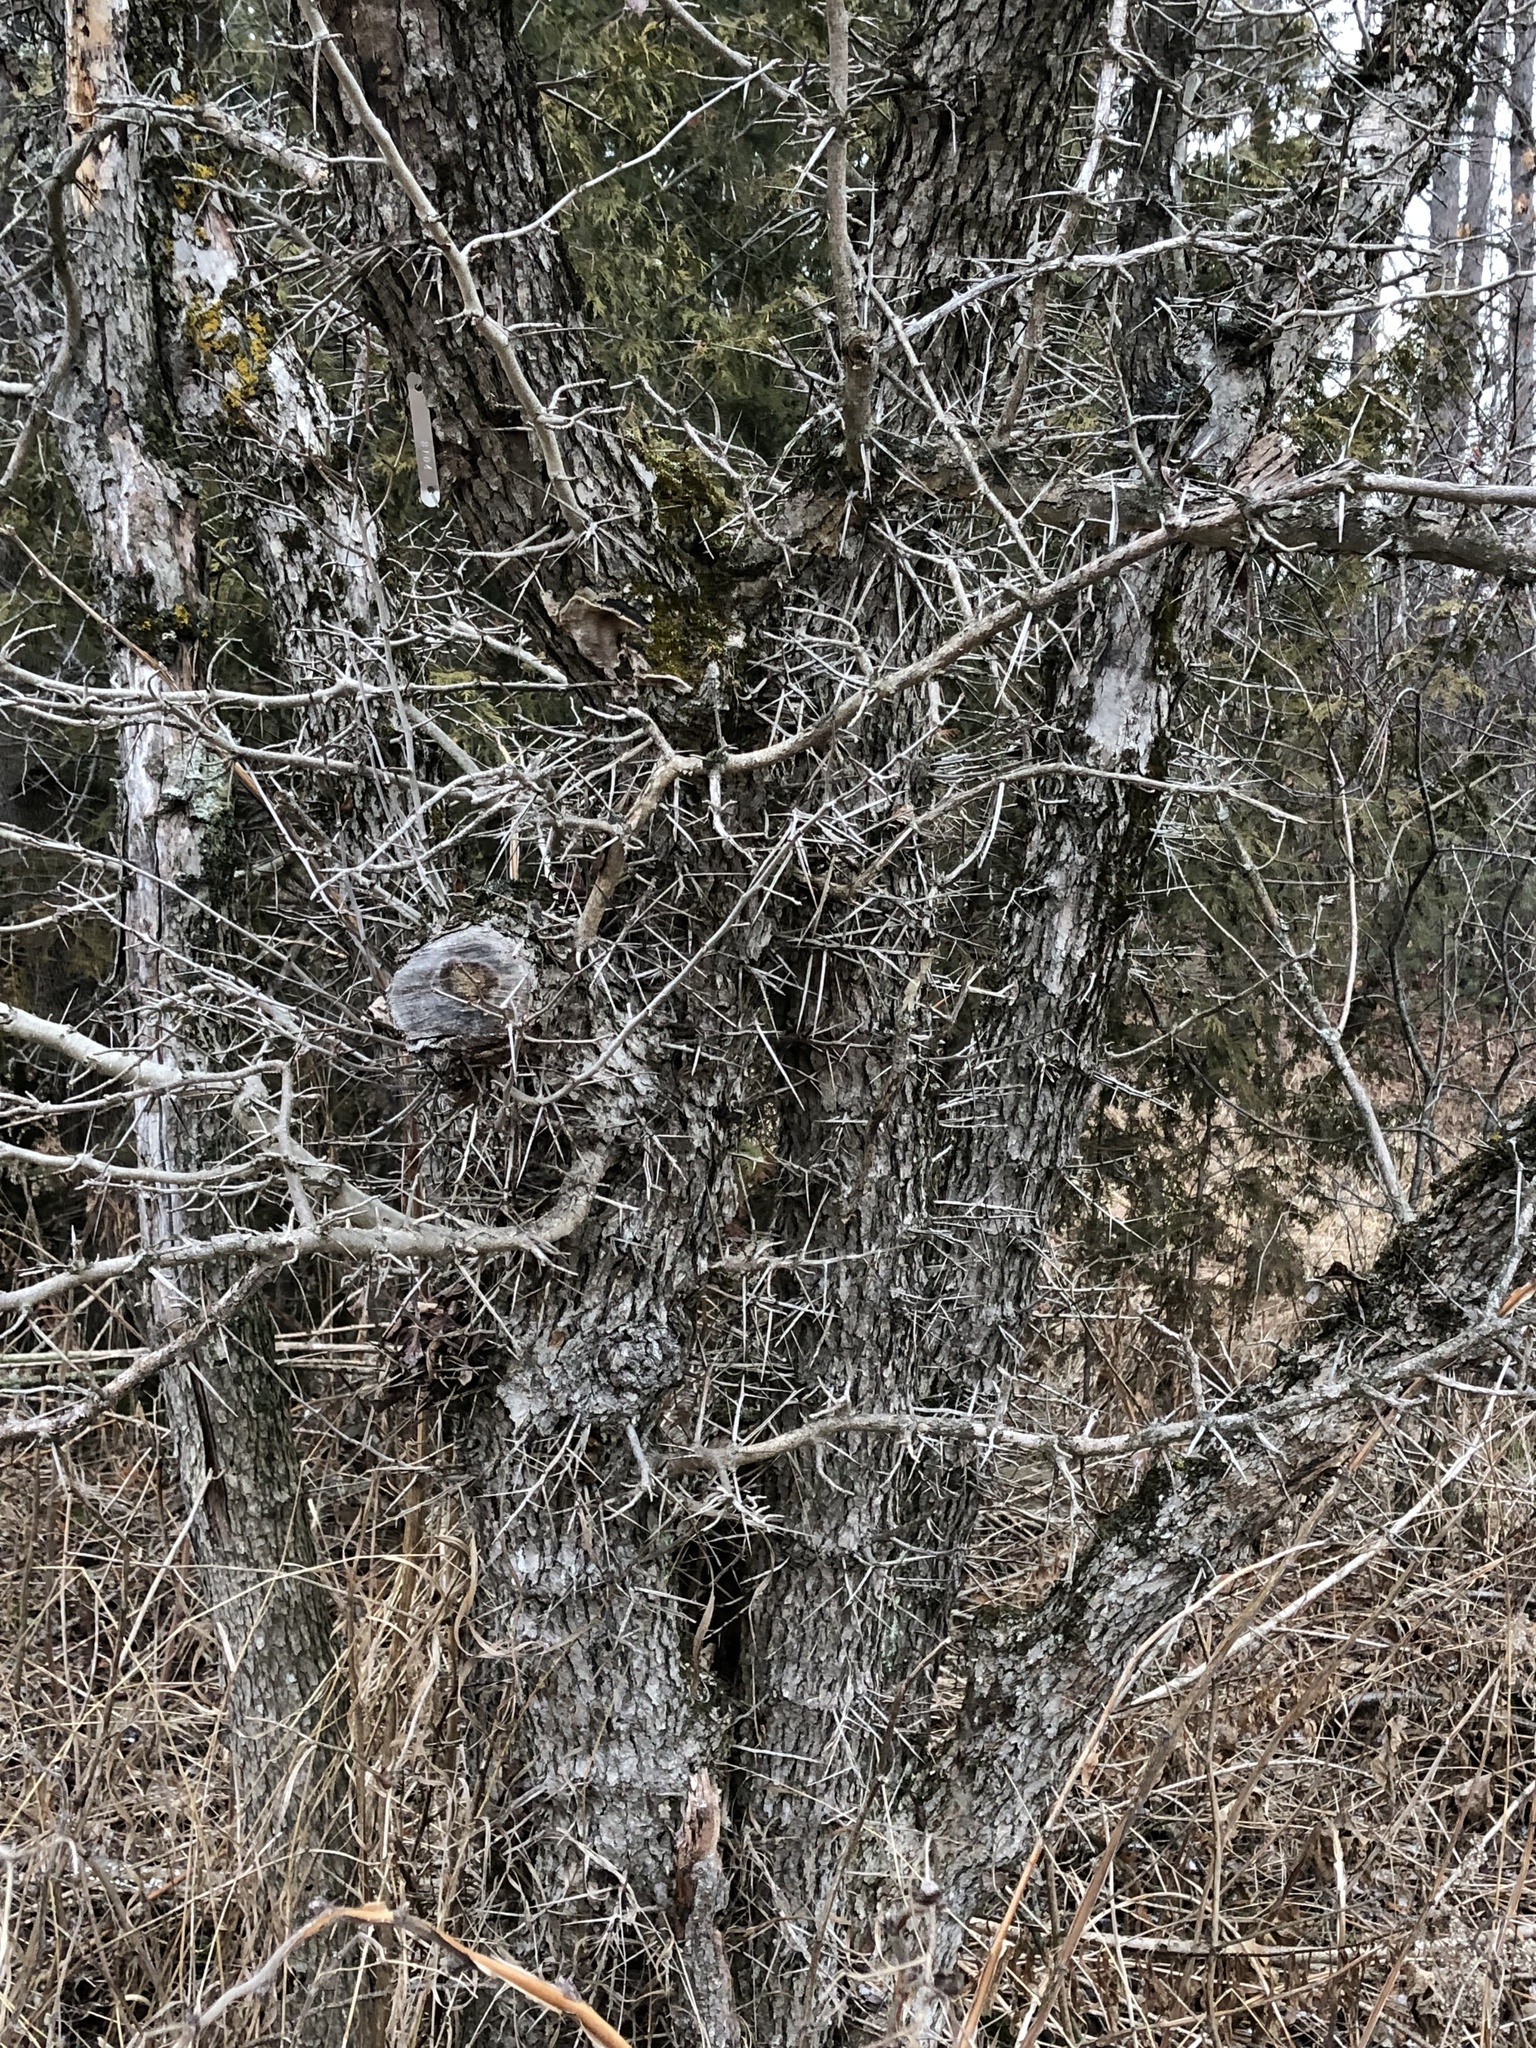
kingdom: Plantae
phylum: Tracheophyta
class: Magnoliopsida
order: Fabales
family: Fabaceae
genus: Gleditsia
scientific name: Gleditsia triacanthos
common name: Common honeylocust
